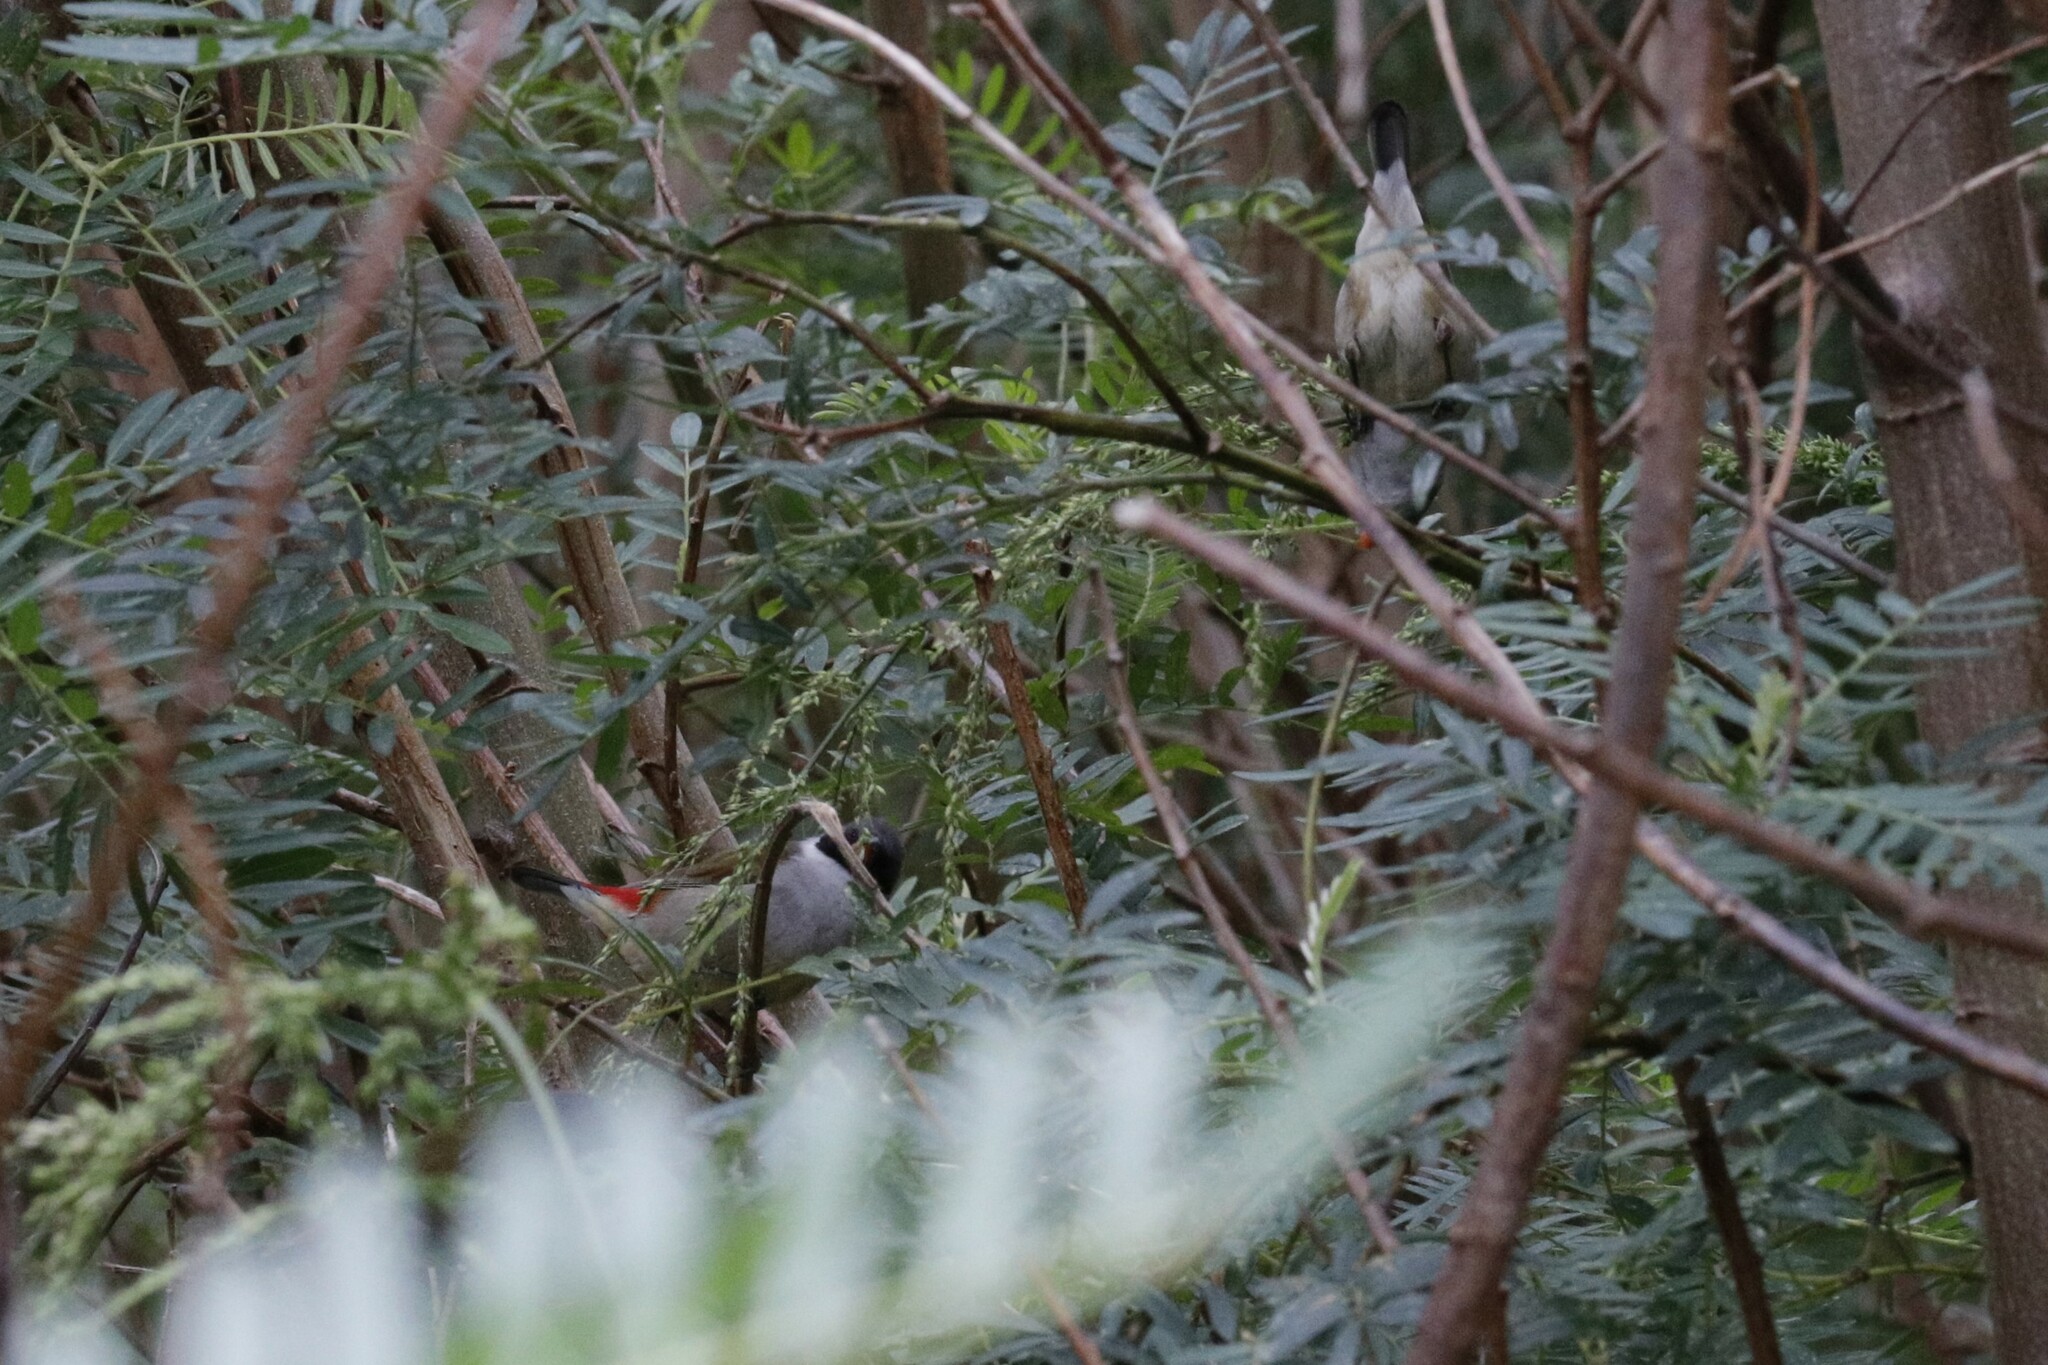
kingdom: Animalia
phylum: Chordata
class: Aves
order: Passeriformes
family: Estrildidae
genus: Coccopygia
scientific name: Coccopygia melanotis
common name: Swee waxbill
